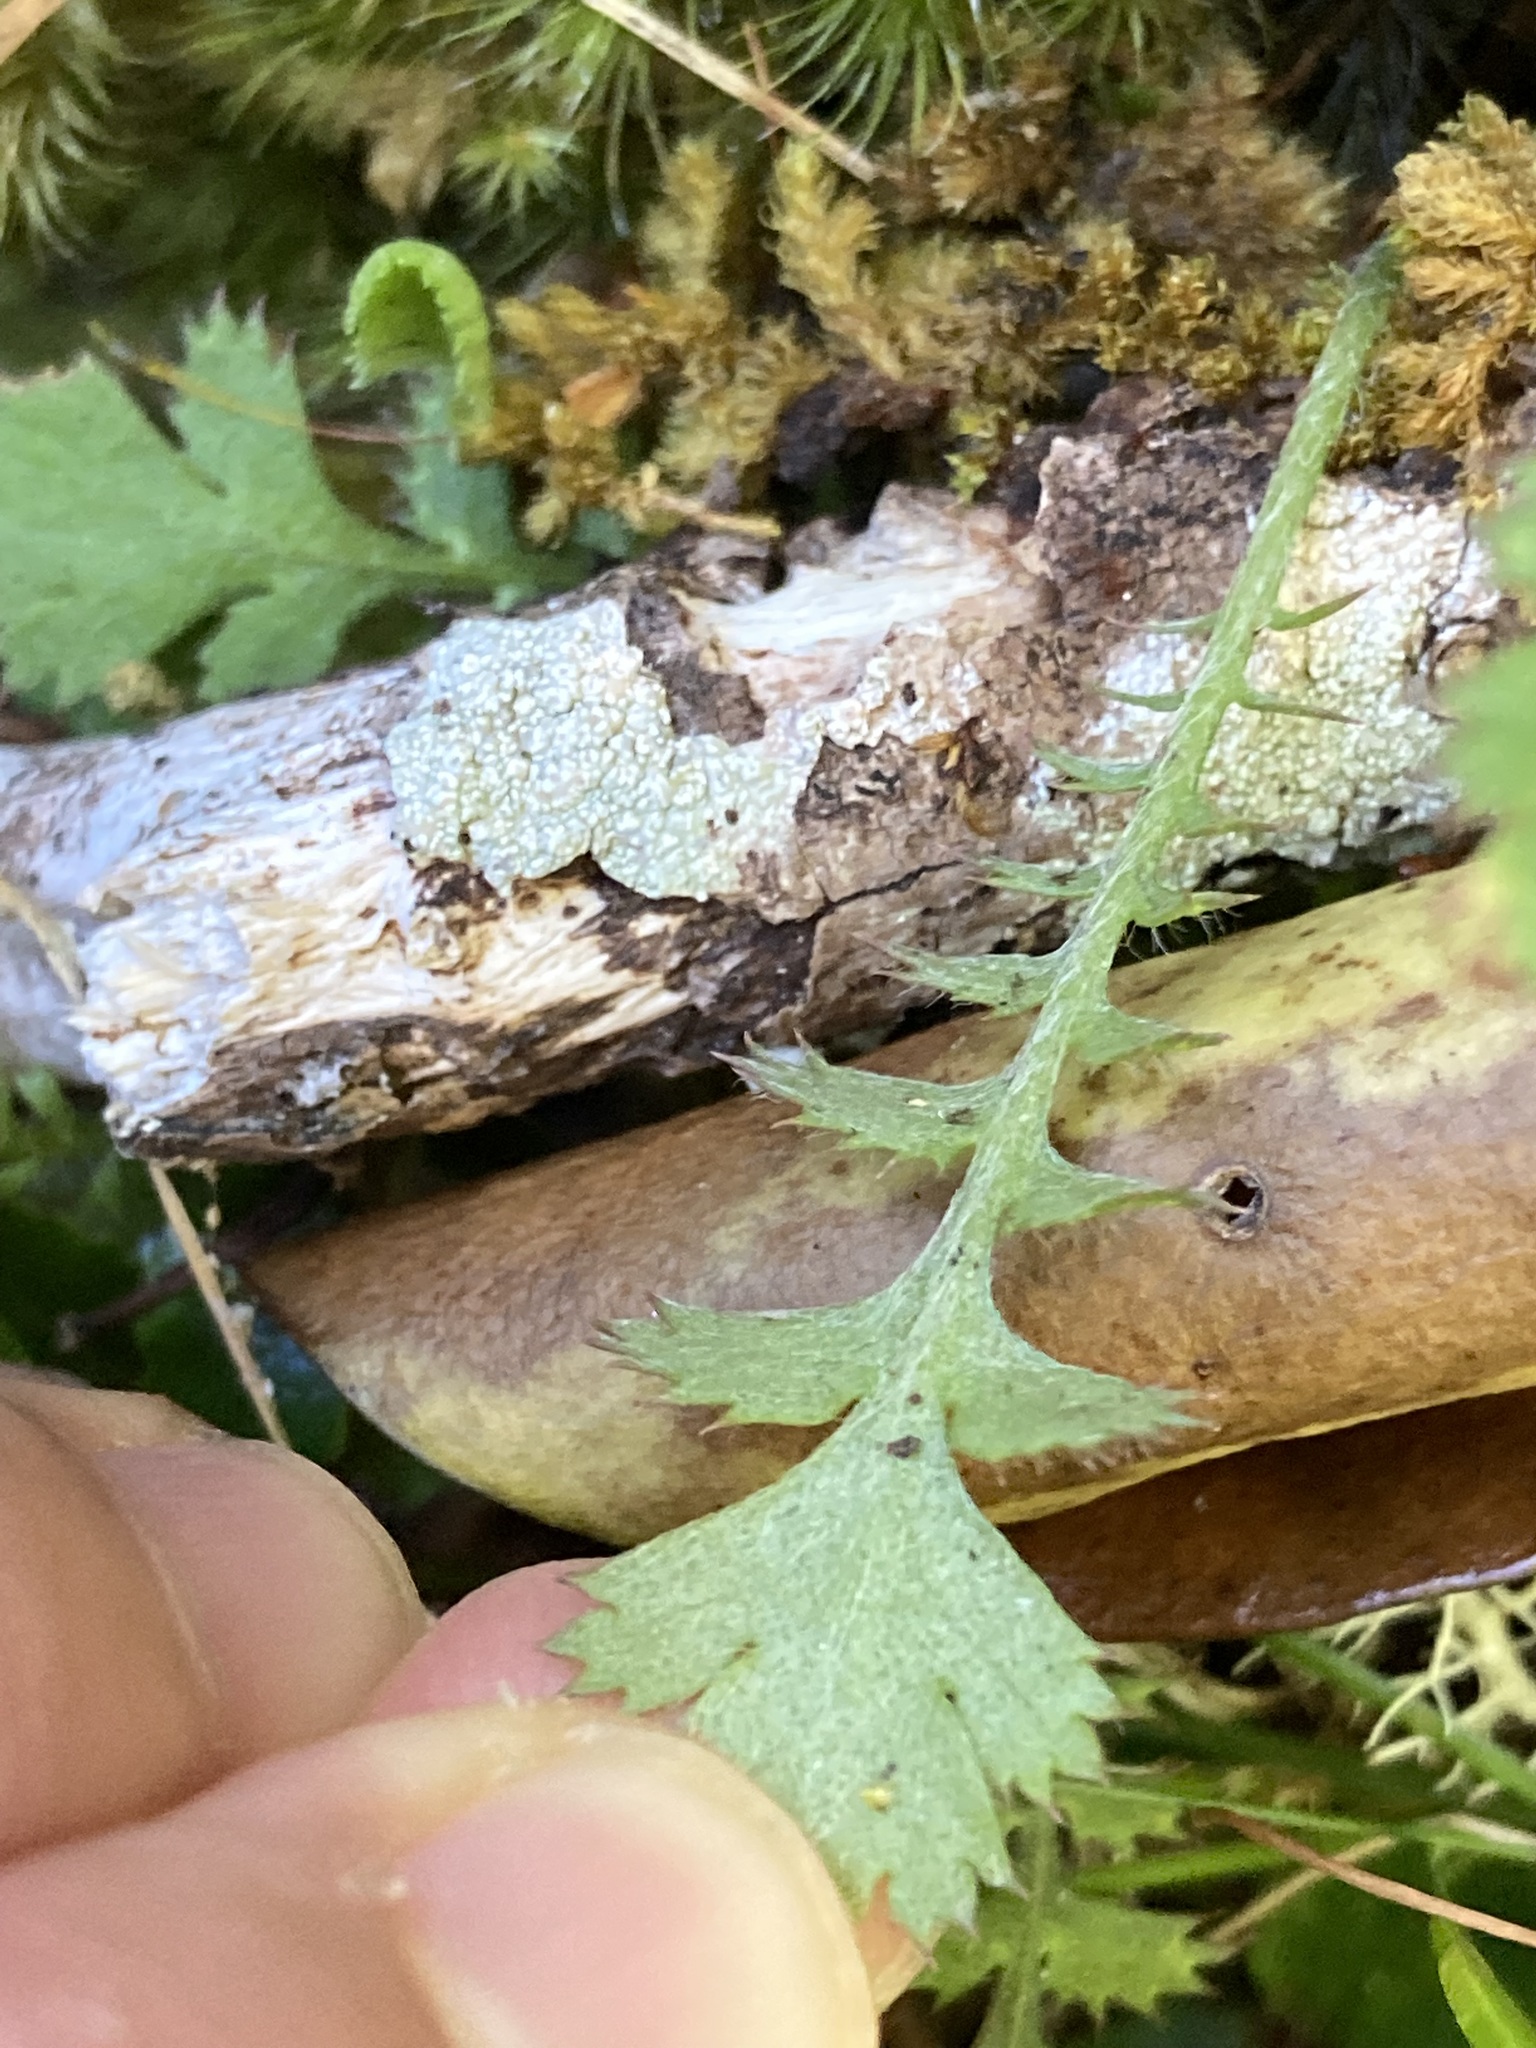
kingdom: Plantae
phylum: Tracheophyta
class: Magnoliopsida
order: Asterales
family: Asteraceae
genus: Leptinella
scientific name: Leptinella squalida
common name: New zealand brass-buttons
